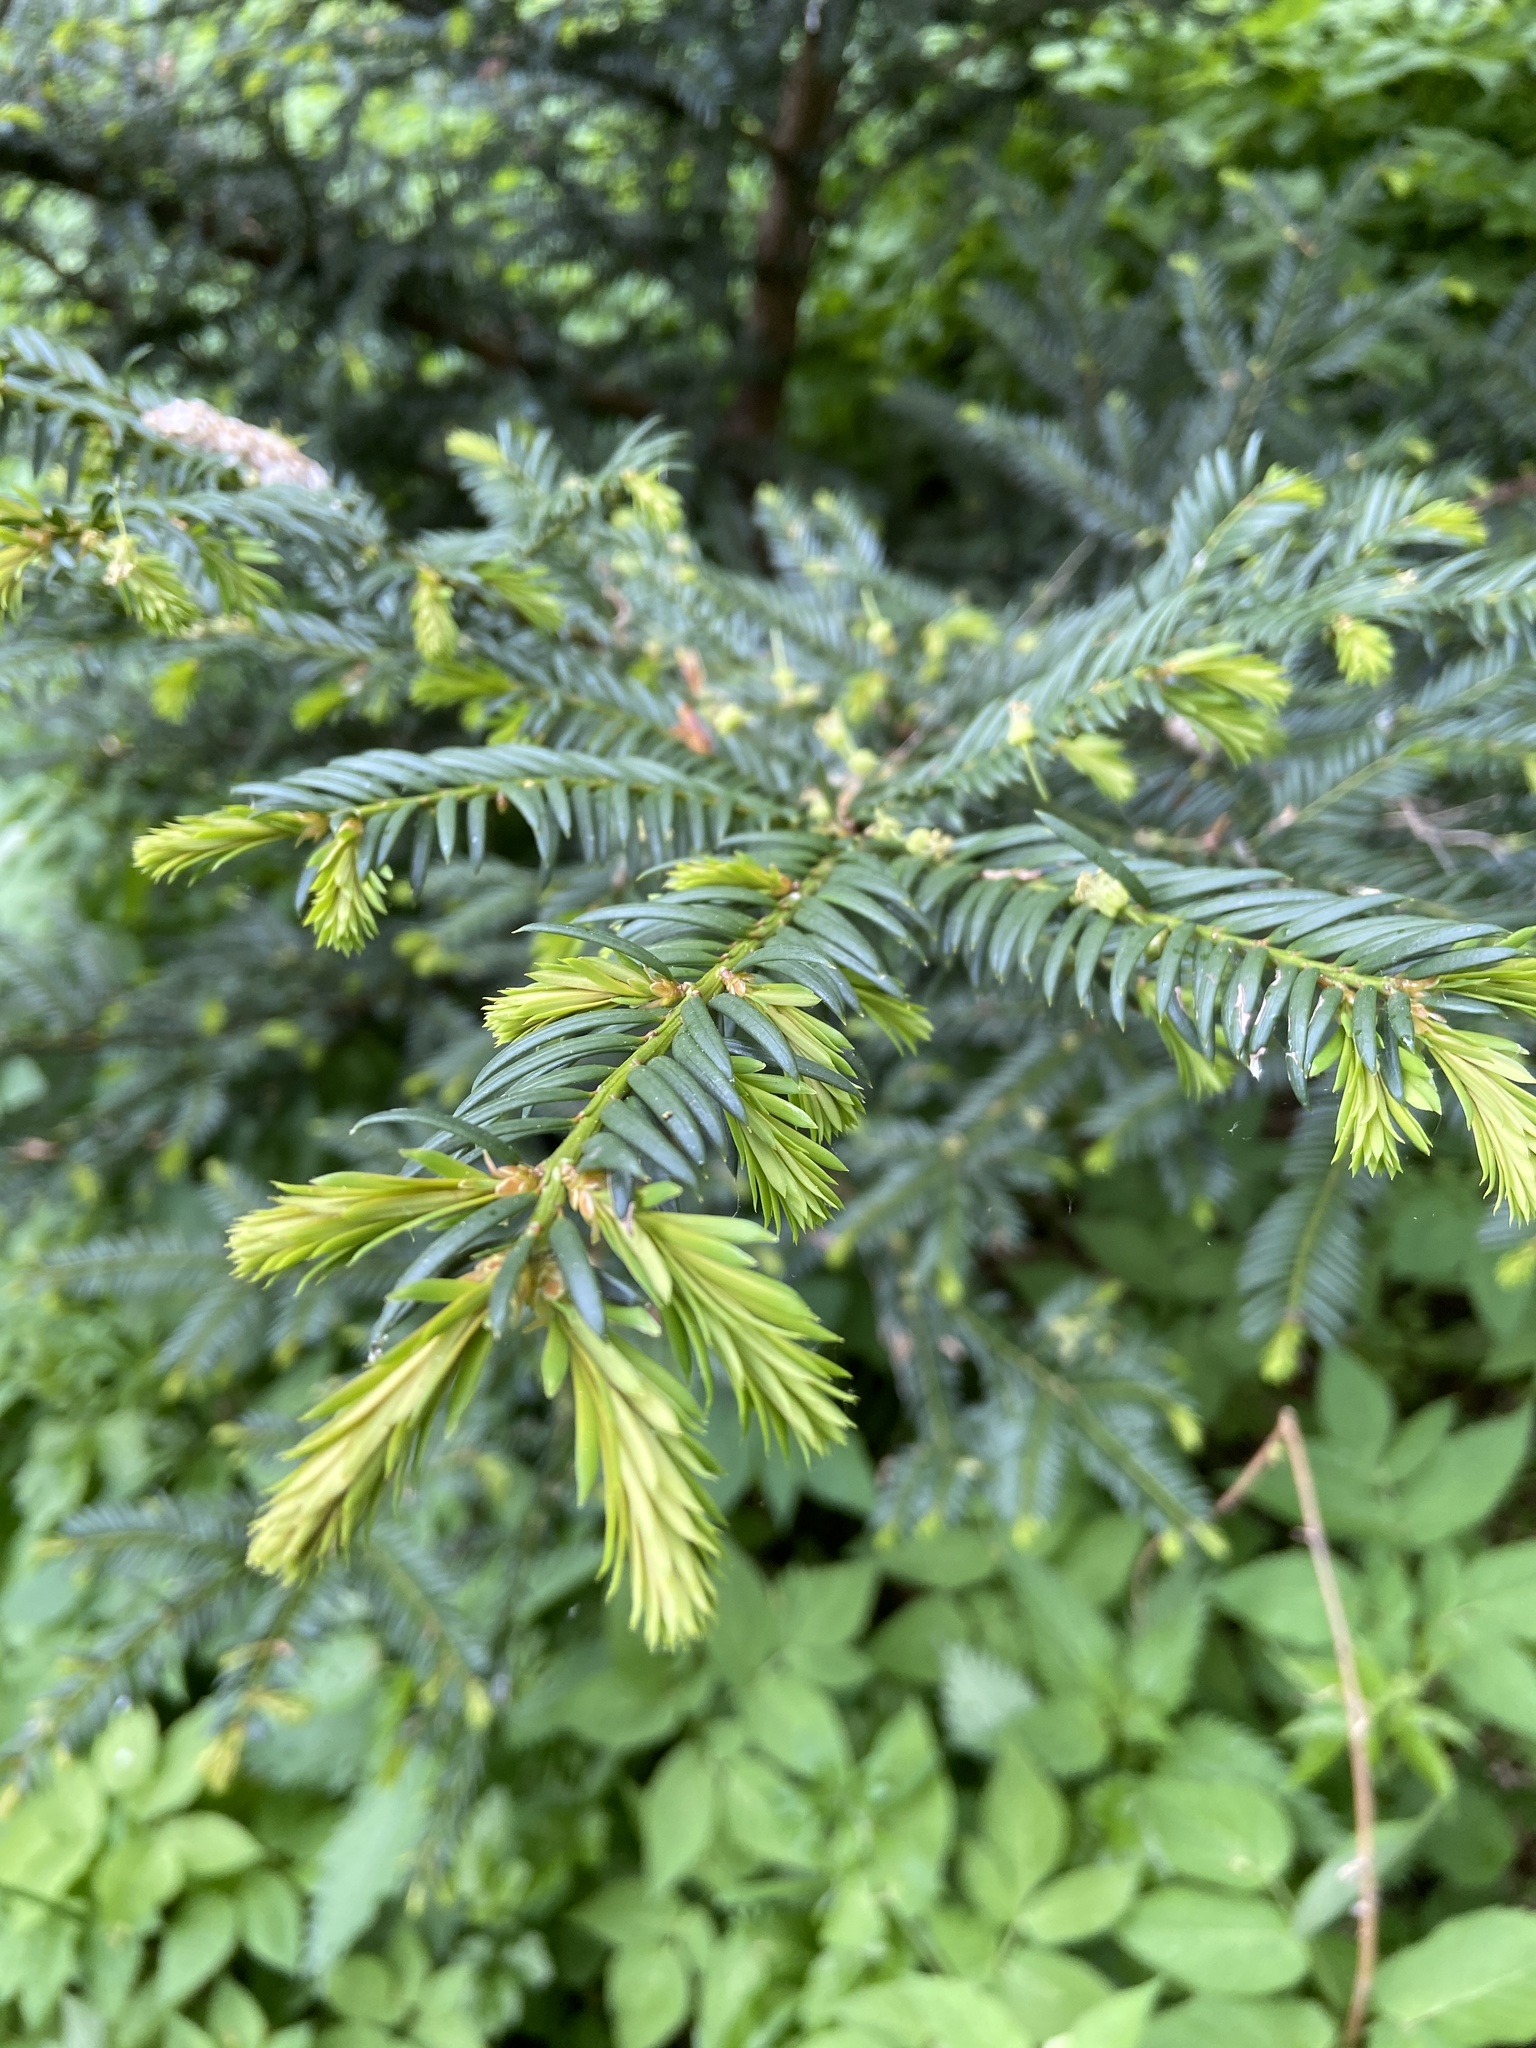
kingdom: Plantae
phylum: Tracheophyta
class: Pinopsida
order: Pinales
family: Taxaceae
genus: Taxus
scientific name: Taxus baccata
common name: Yew
